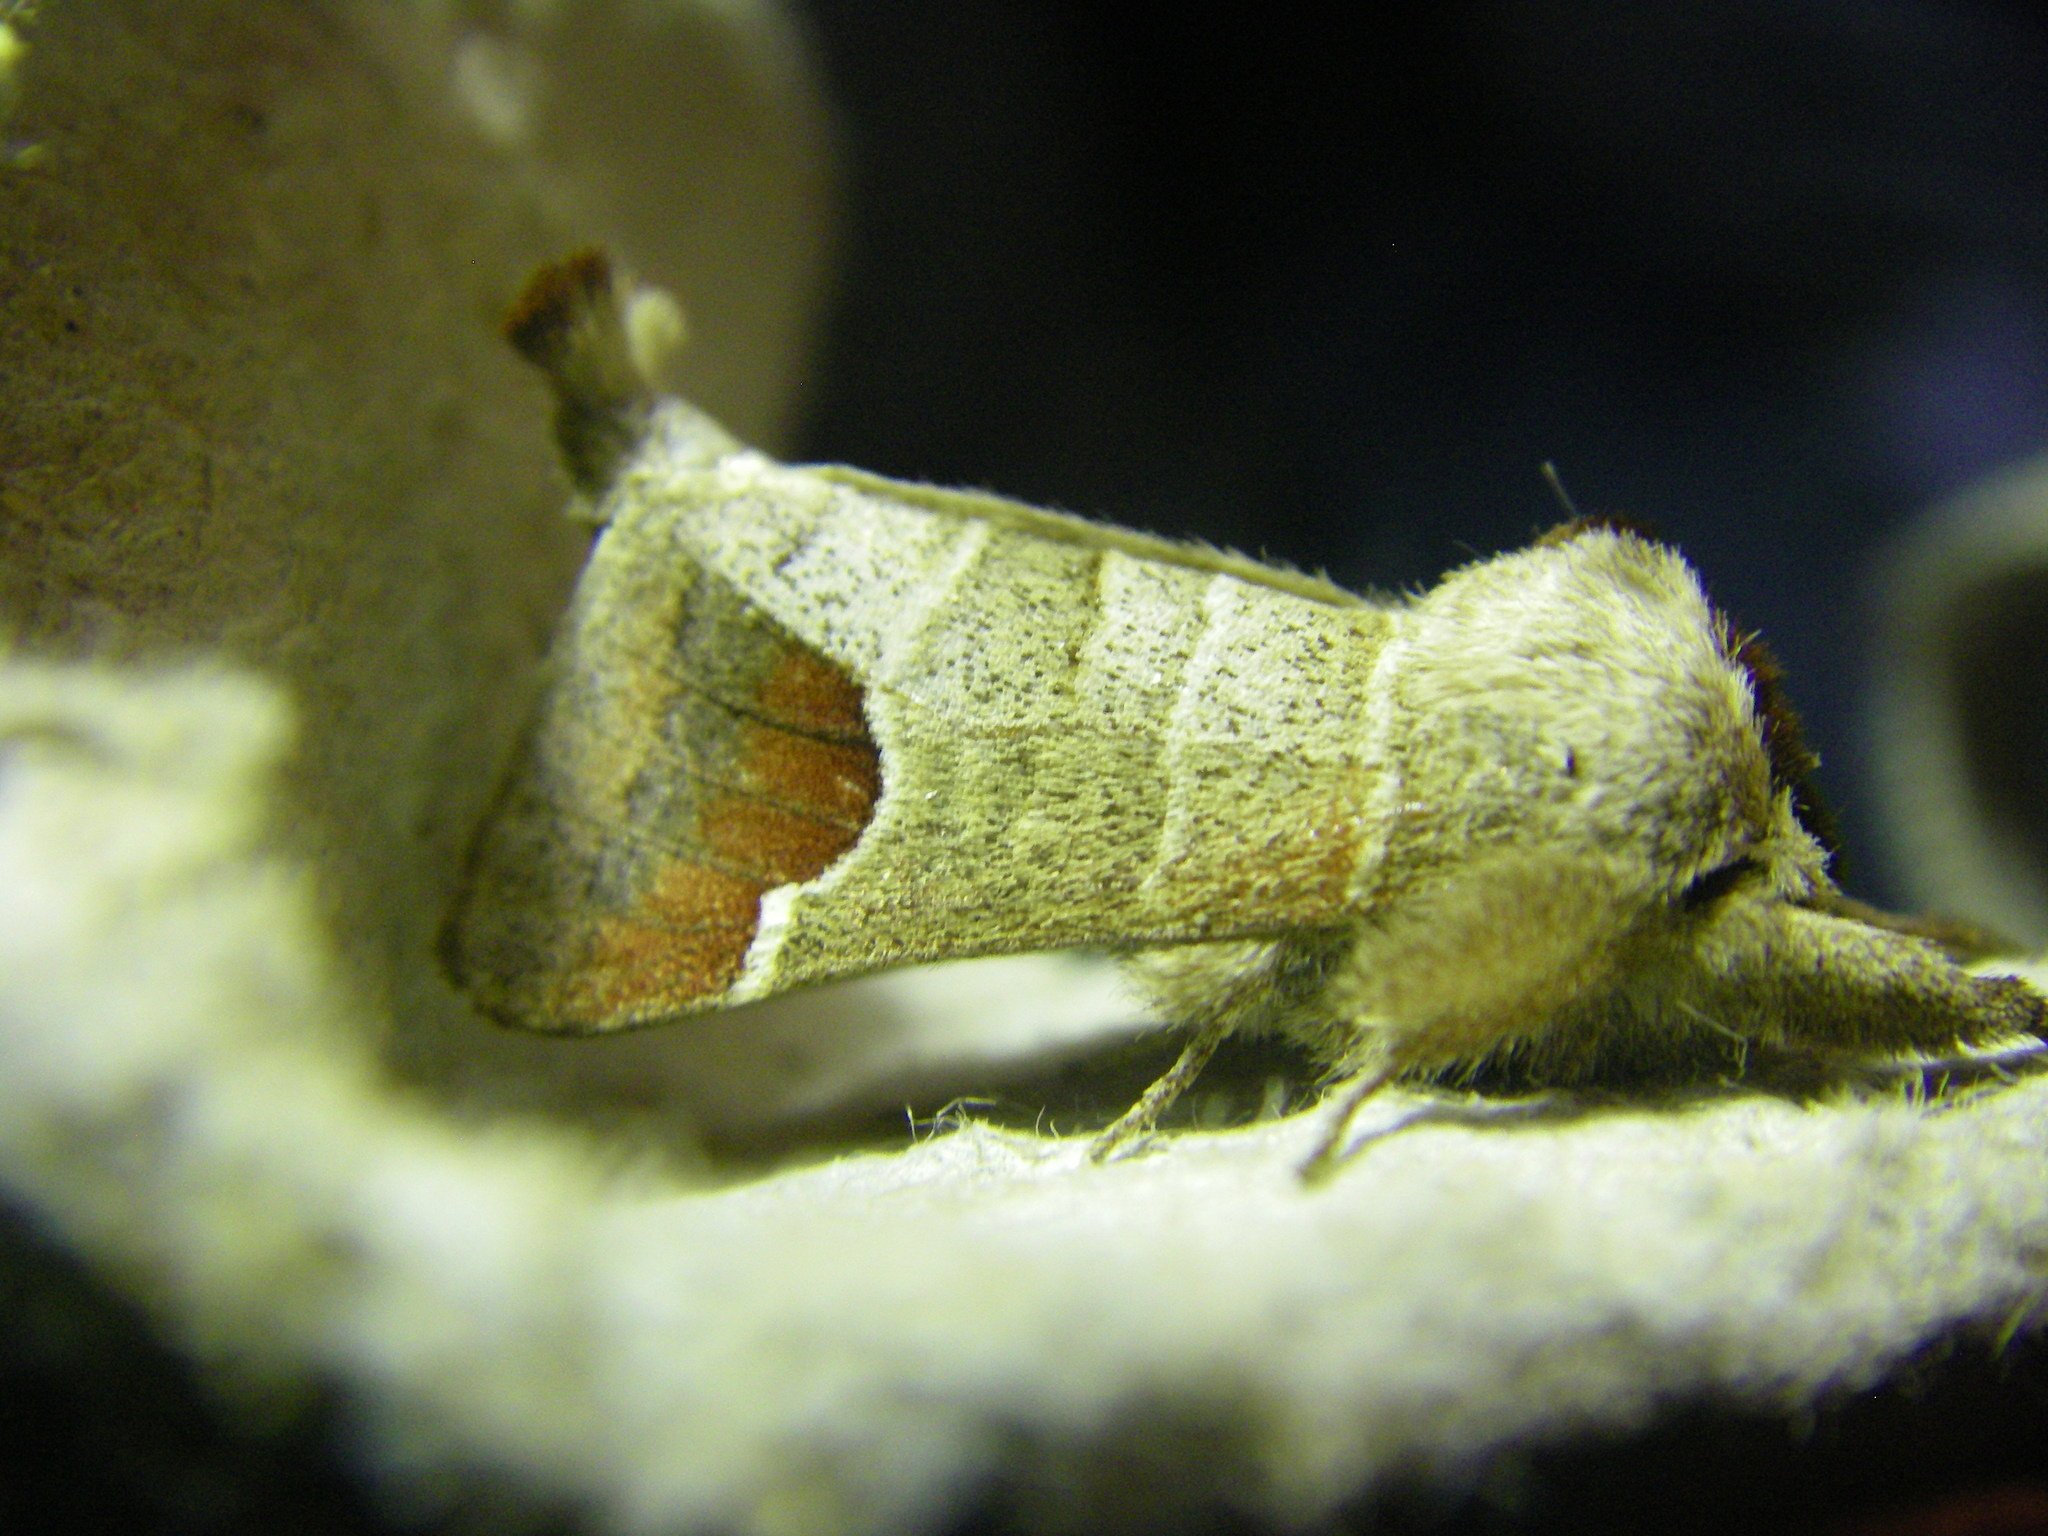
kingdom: Animalia
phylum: Arthropoda
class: Insecta
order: Lepidoptera
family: Notodontidae
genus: Clostera
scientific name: Clostera curtula
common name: Chocolate-tip
